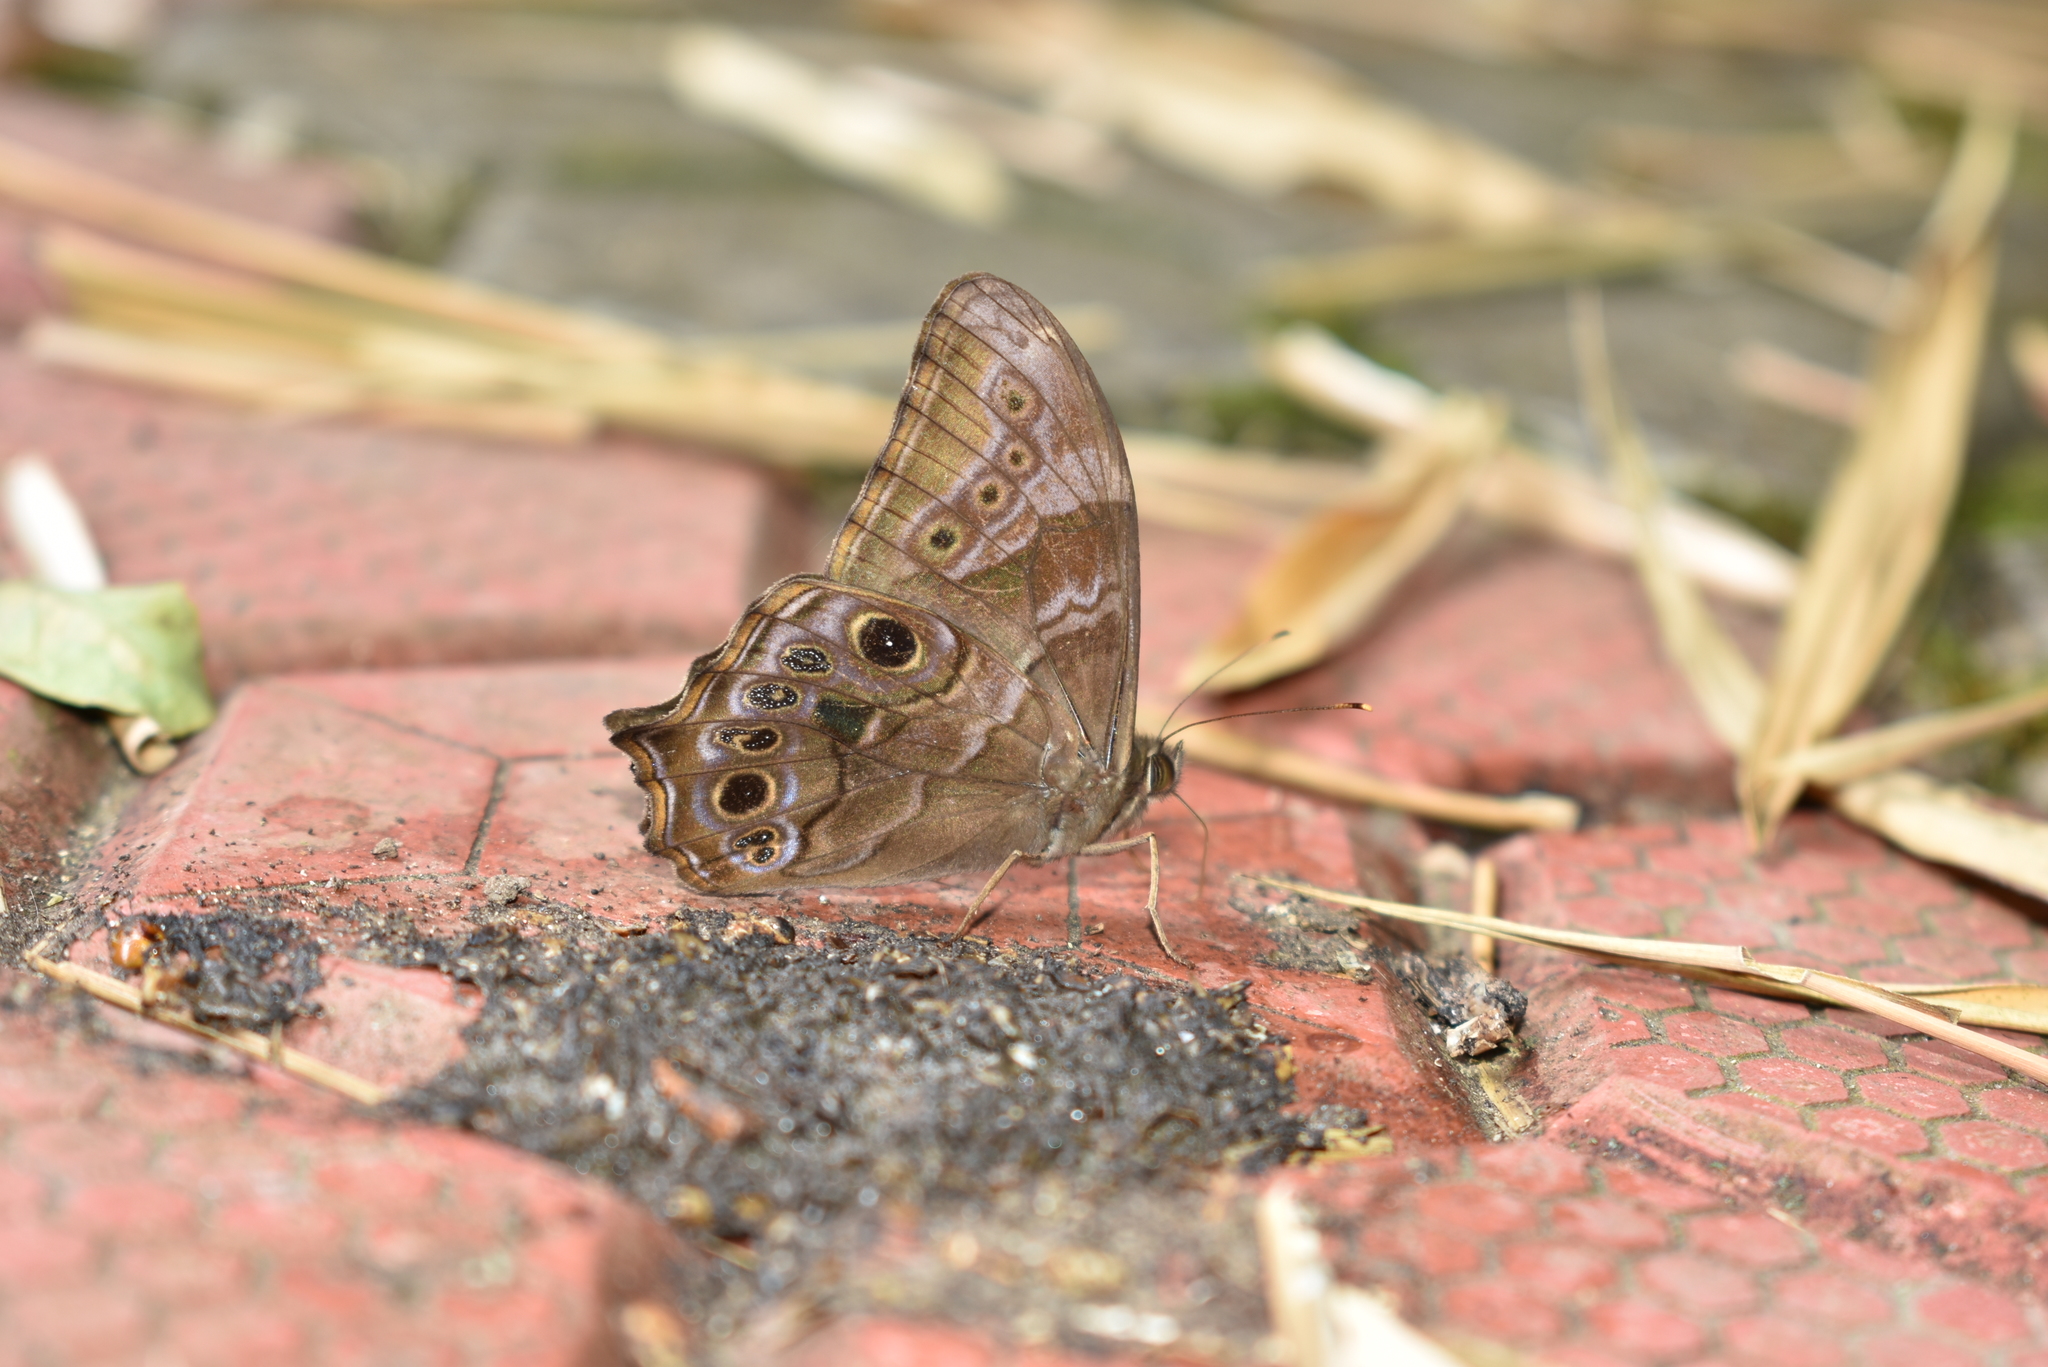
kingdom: Animalia
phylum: Arthropoda
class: Insecta
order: Lepidoptera
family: Nymphalidae
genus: Lethe
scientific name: Lethe drypetis
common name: Tamil treebrown
